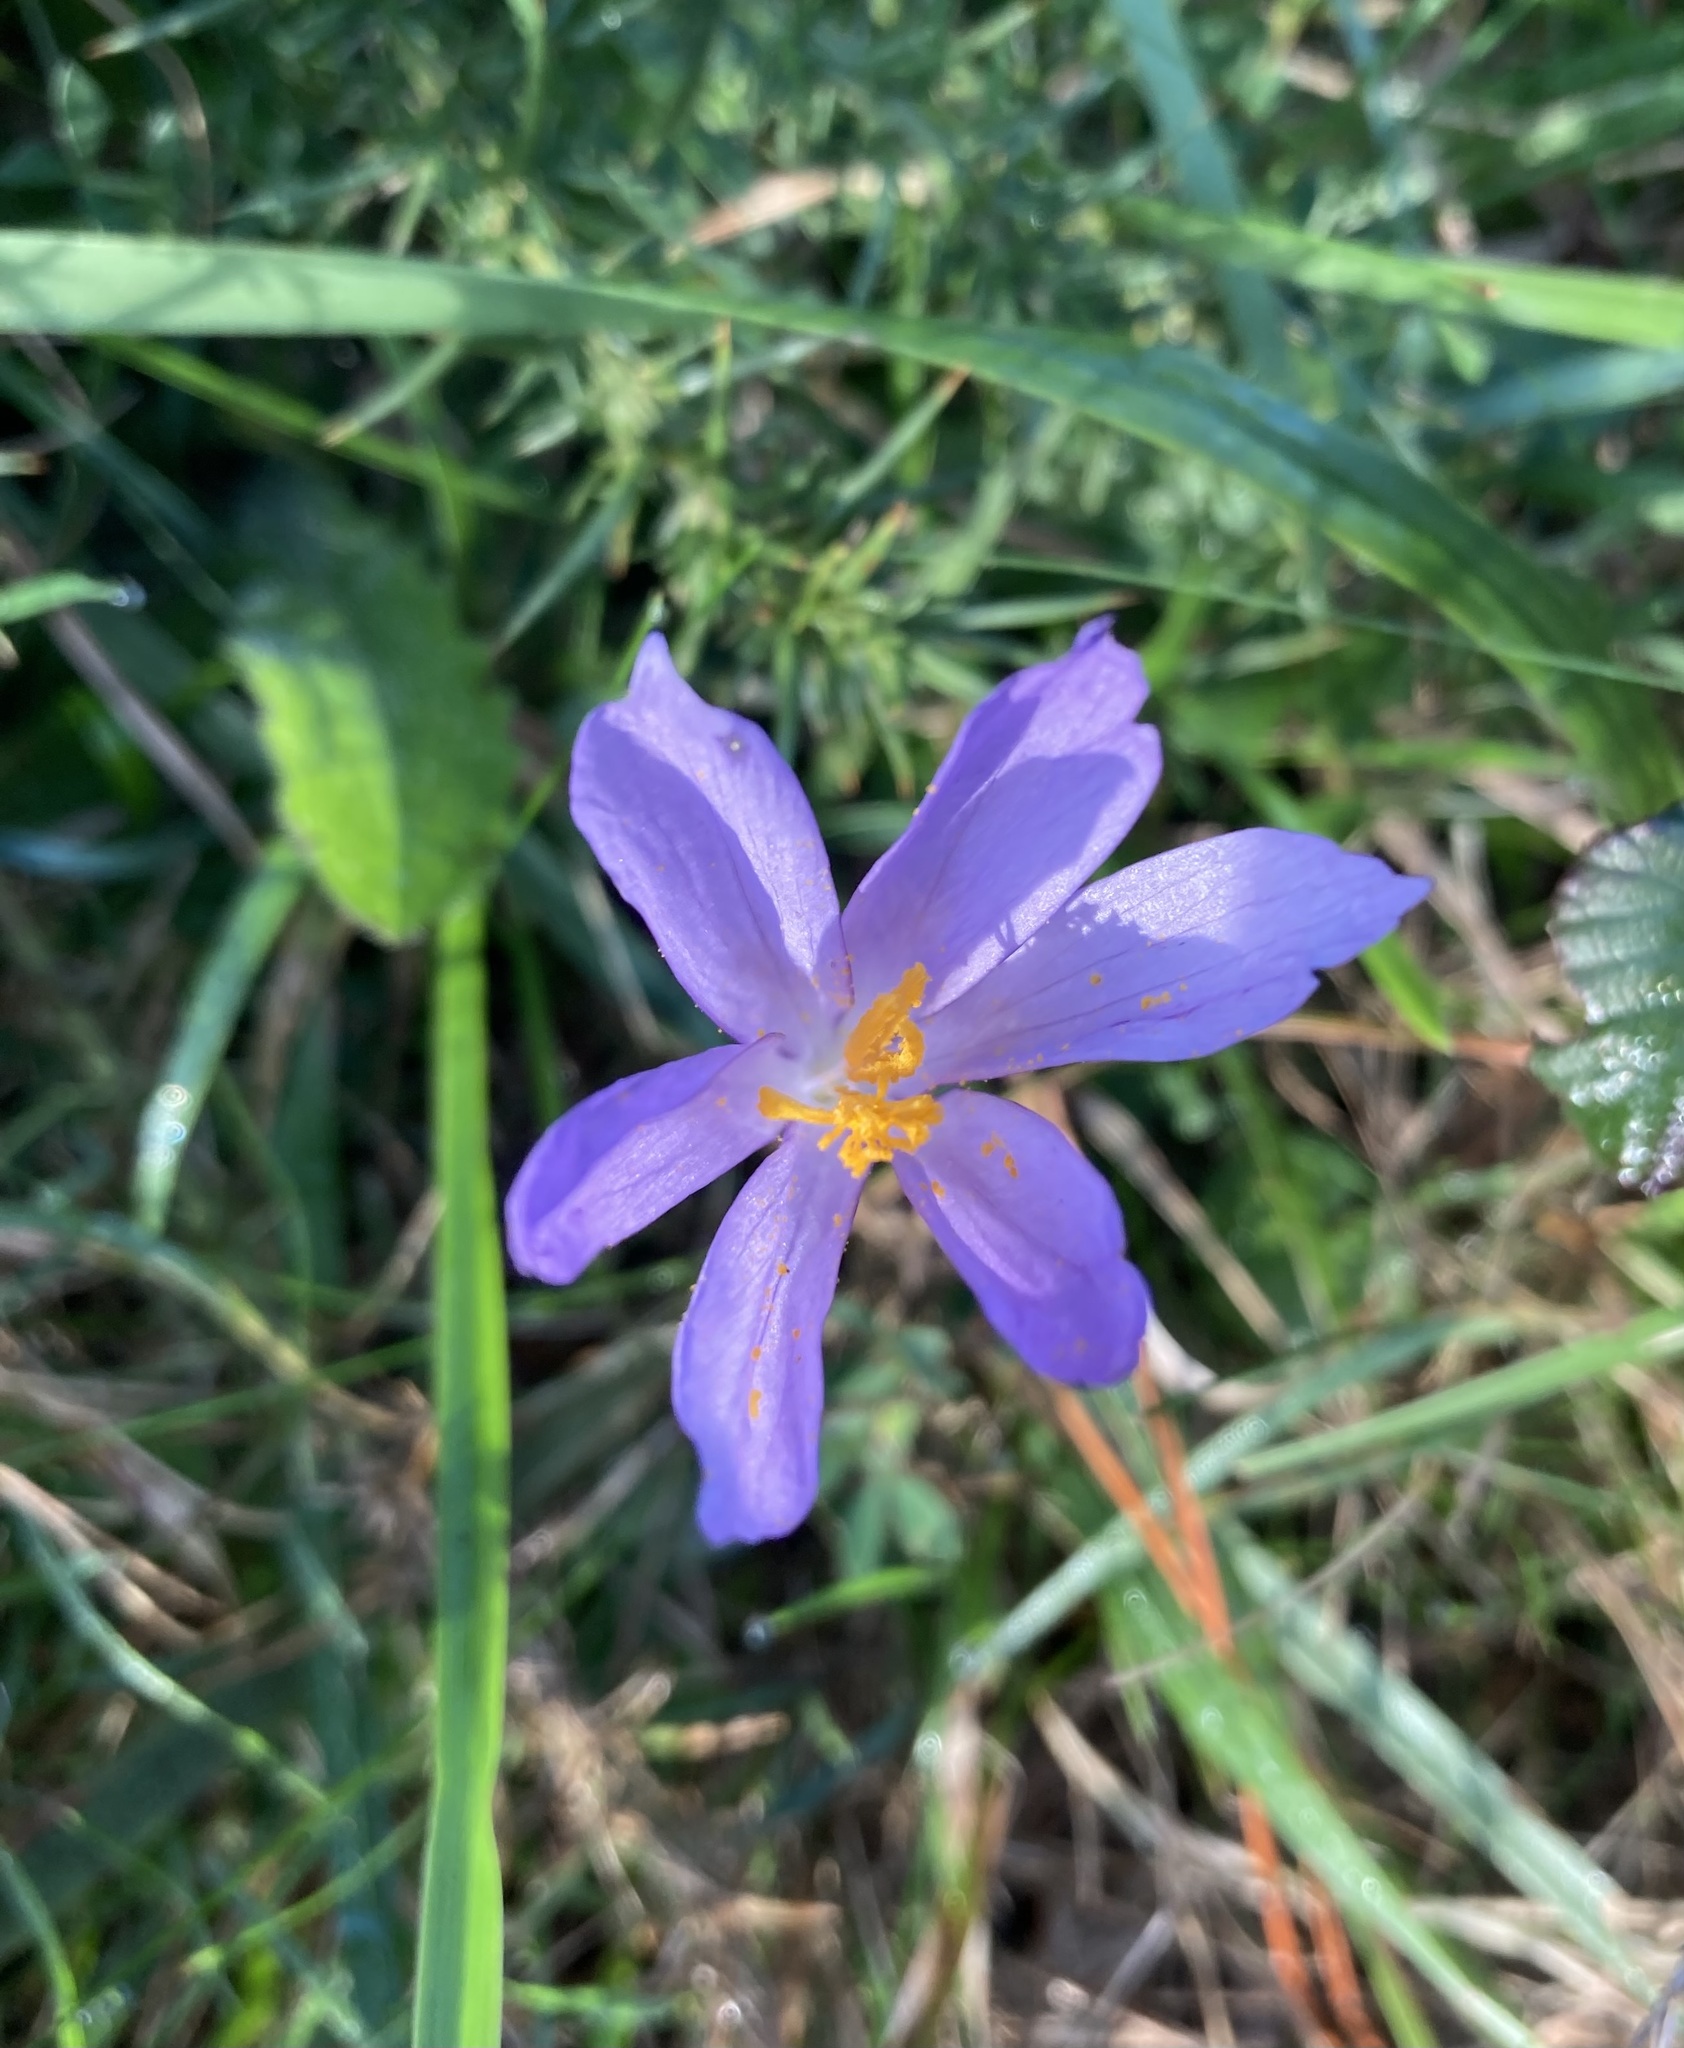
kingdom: Plantae
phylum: Tracheophyta
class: Liliopsida
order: Asparagales
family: Iridaceae
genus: Crocus
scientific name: Crocus nudiflorus
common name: Autumn crocus
